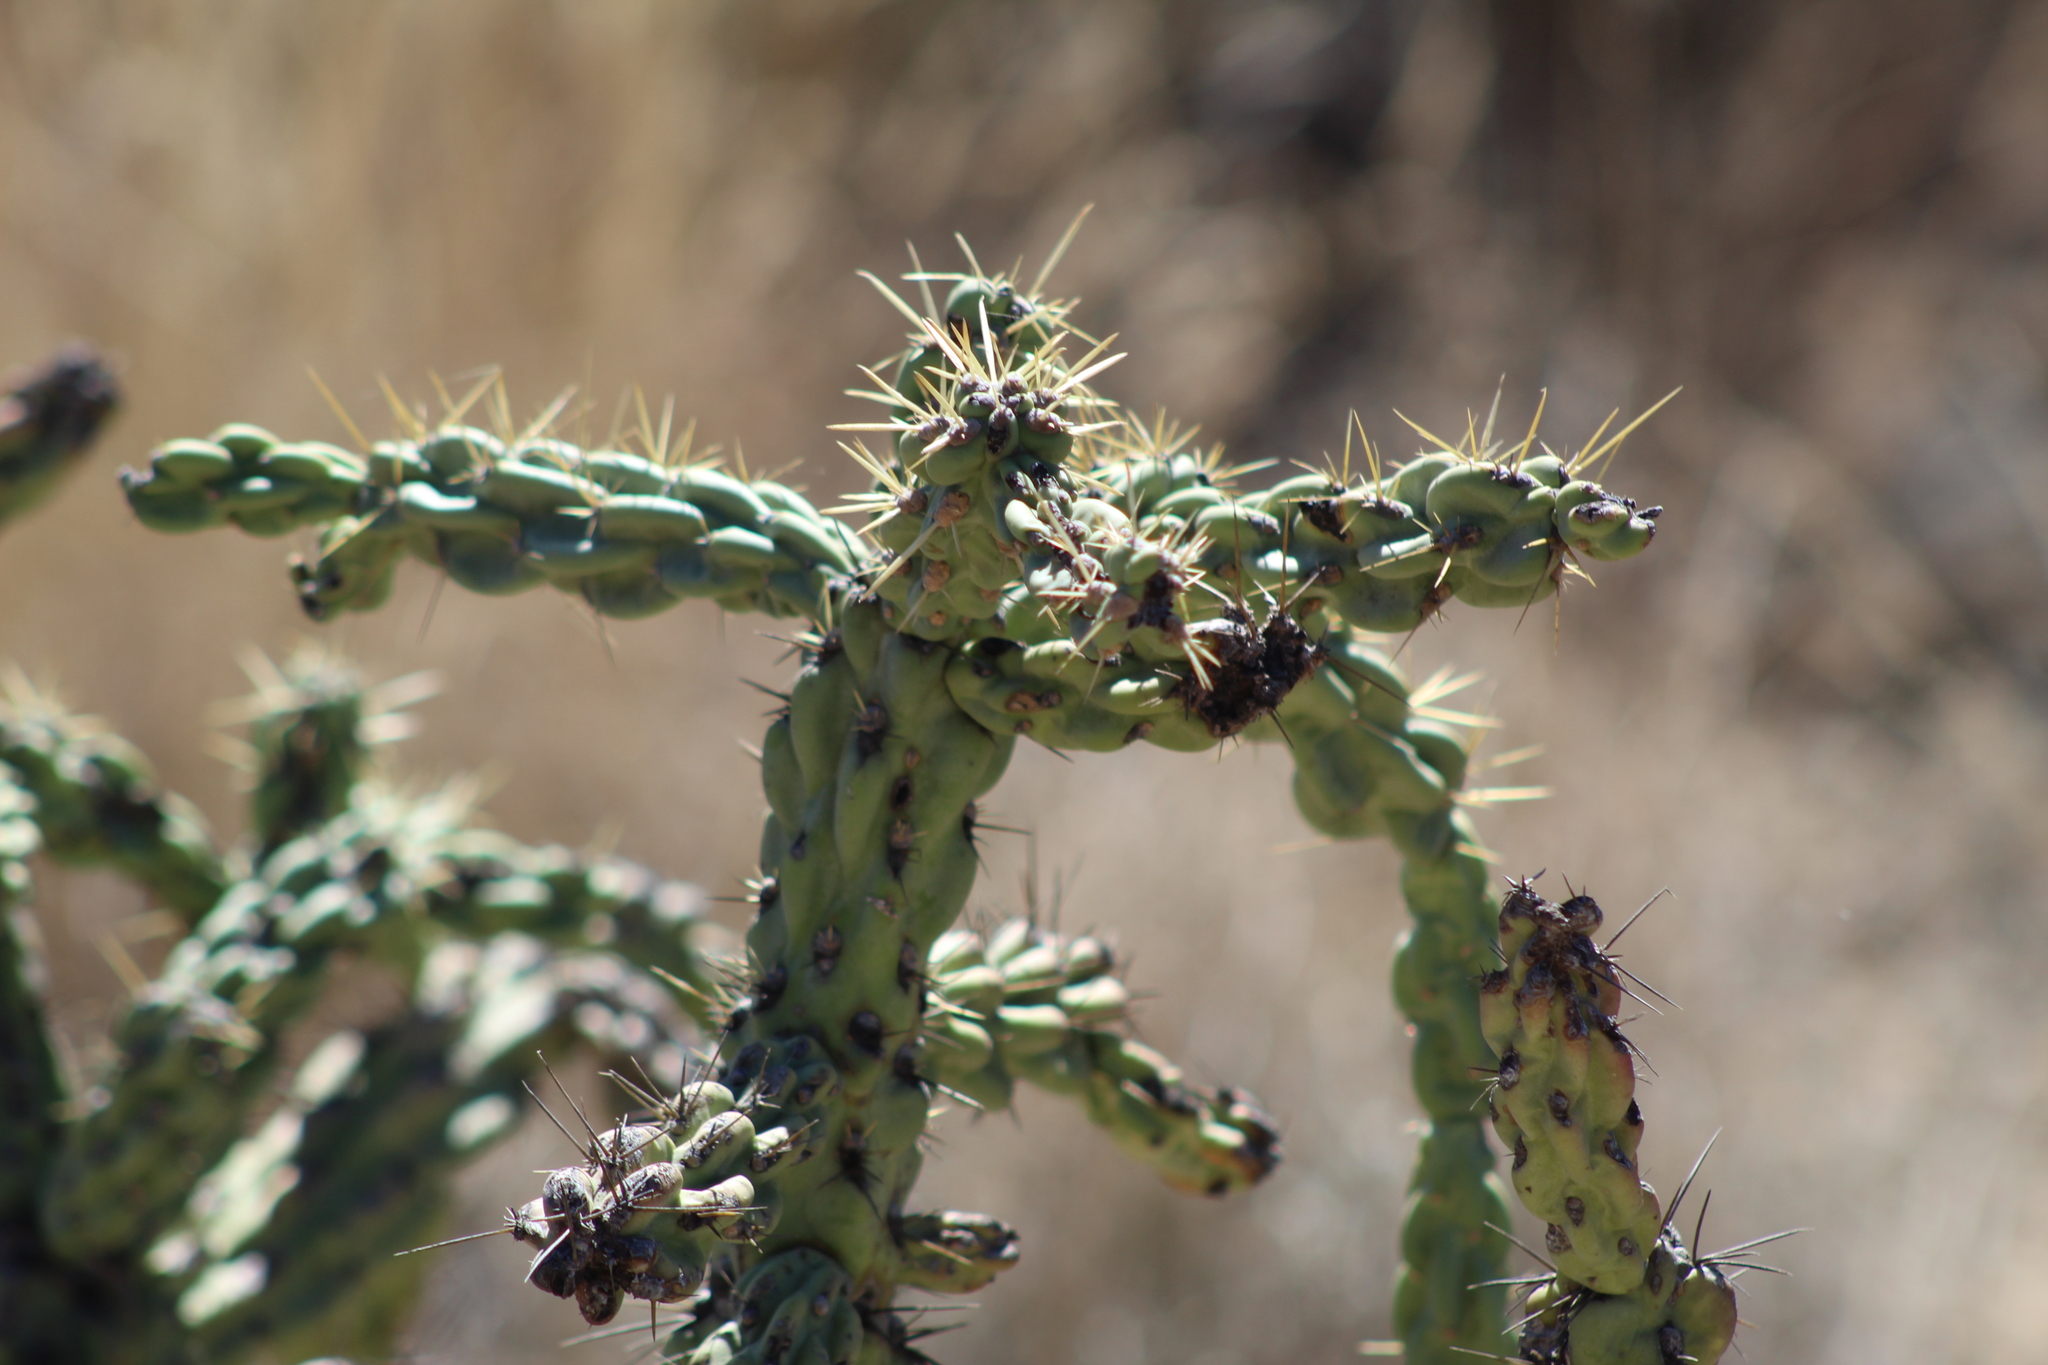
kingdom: Plantae
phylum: Tracheophyta
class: Magnoliopsida
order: Caryophyllales
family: Cactaceae
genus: Cylindropuntia
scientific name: Cylindropuntia imbricata
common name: Candelabrum cactus
